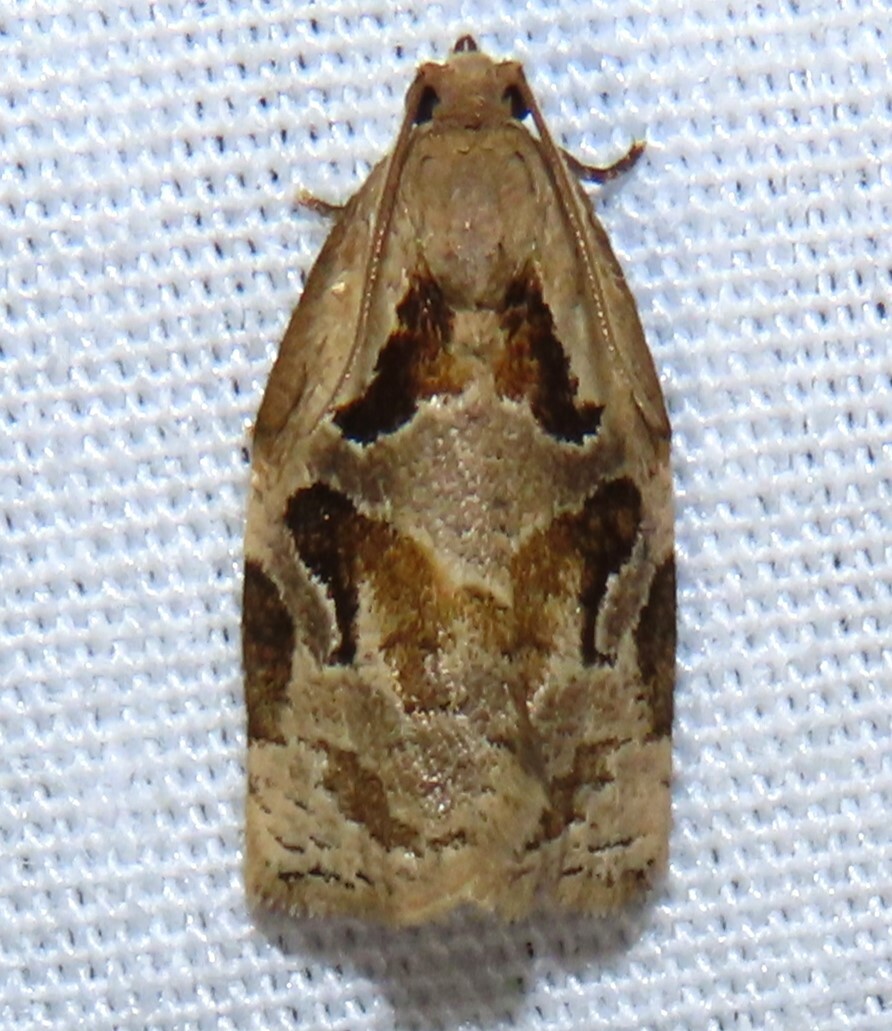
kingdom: Animalia
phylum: Arthropoda
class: Insecta
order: Lepidoptera
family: Tortricidae
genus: Archips
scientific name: Archips grisea
